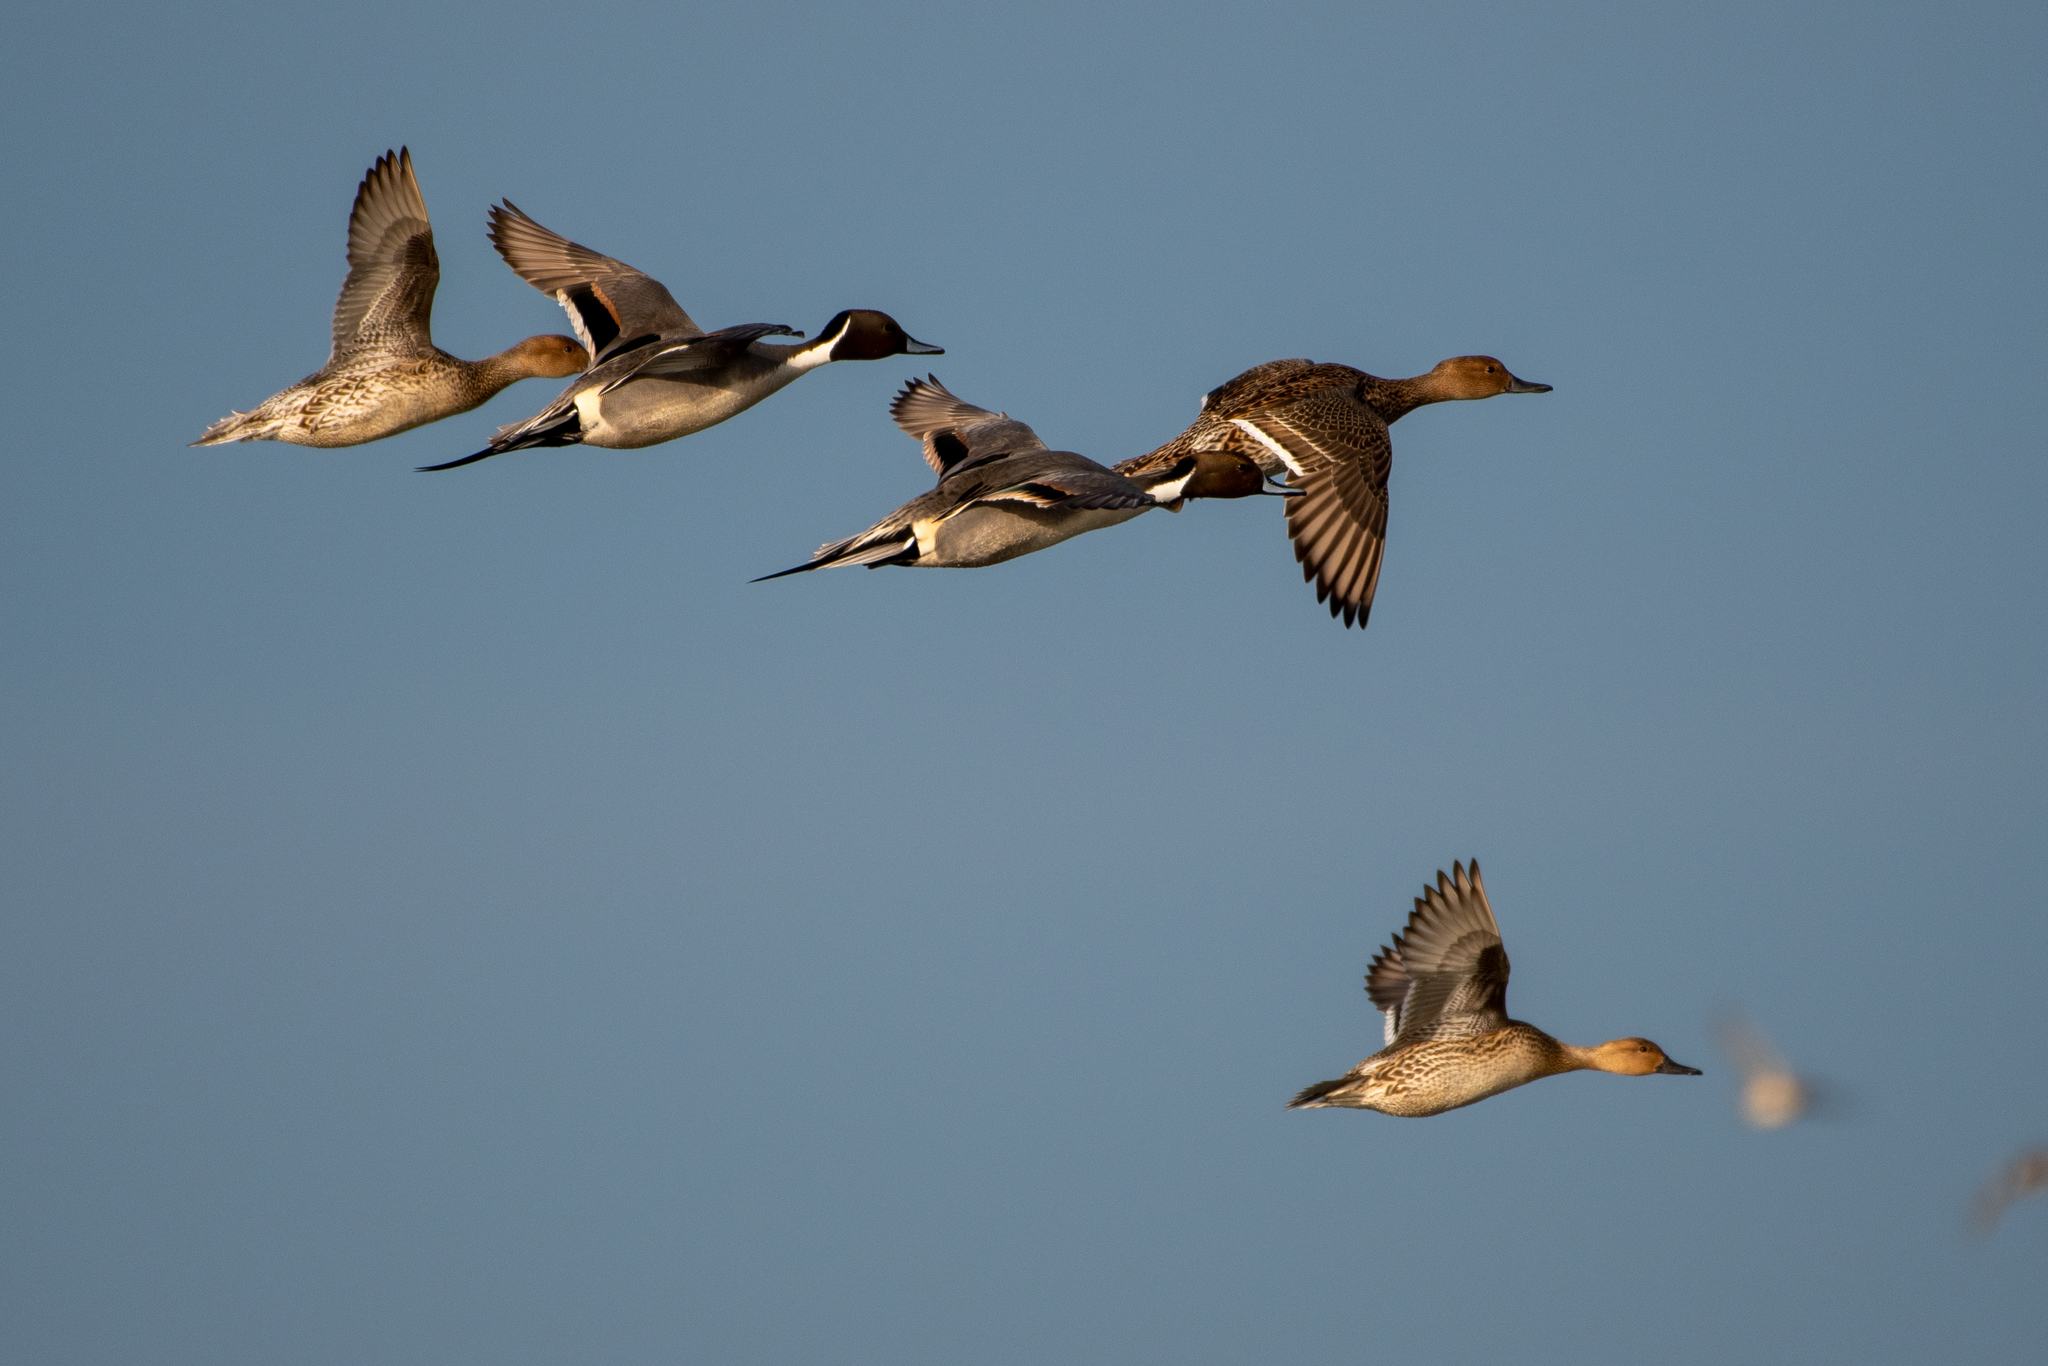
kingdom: Animalia
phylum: Chordata
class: Aves
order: Anseriformes
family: Anatidae
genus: Anas
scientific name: Anas acuta
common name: Northern pintail
